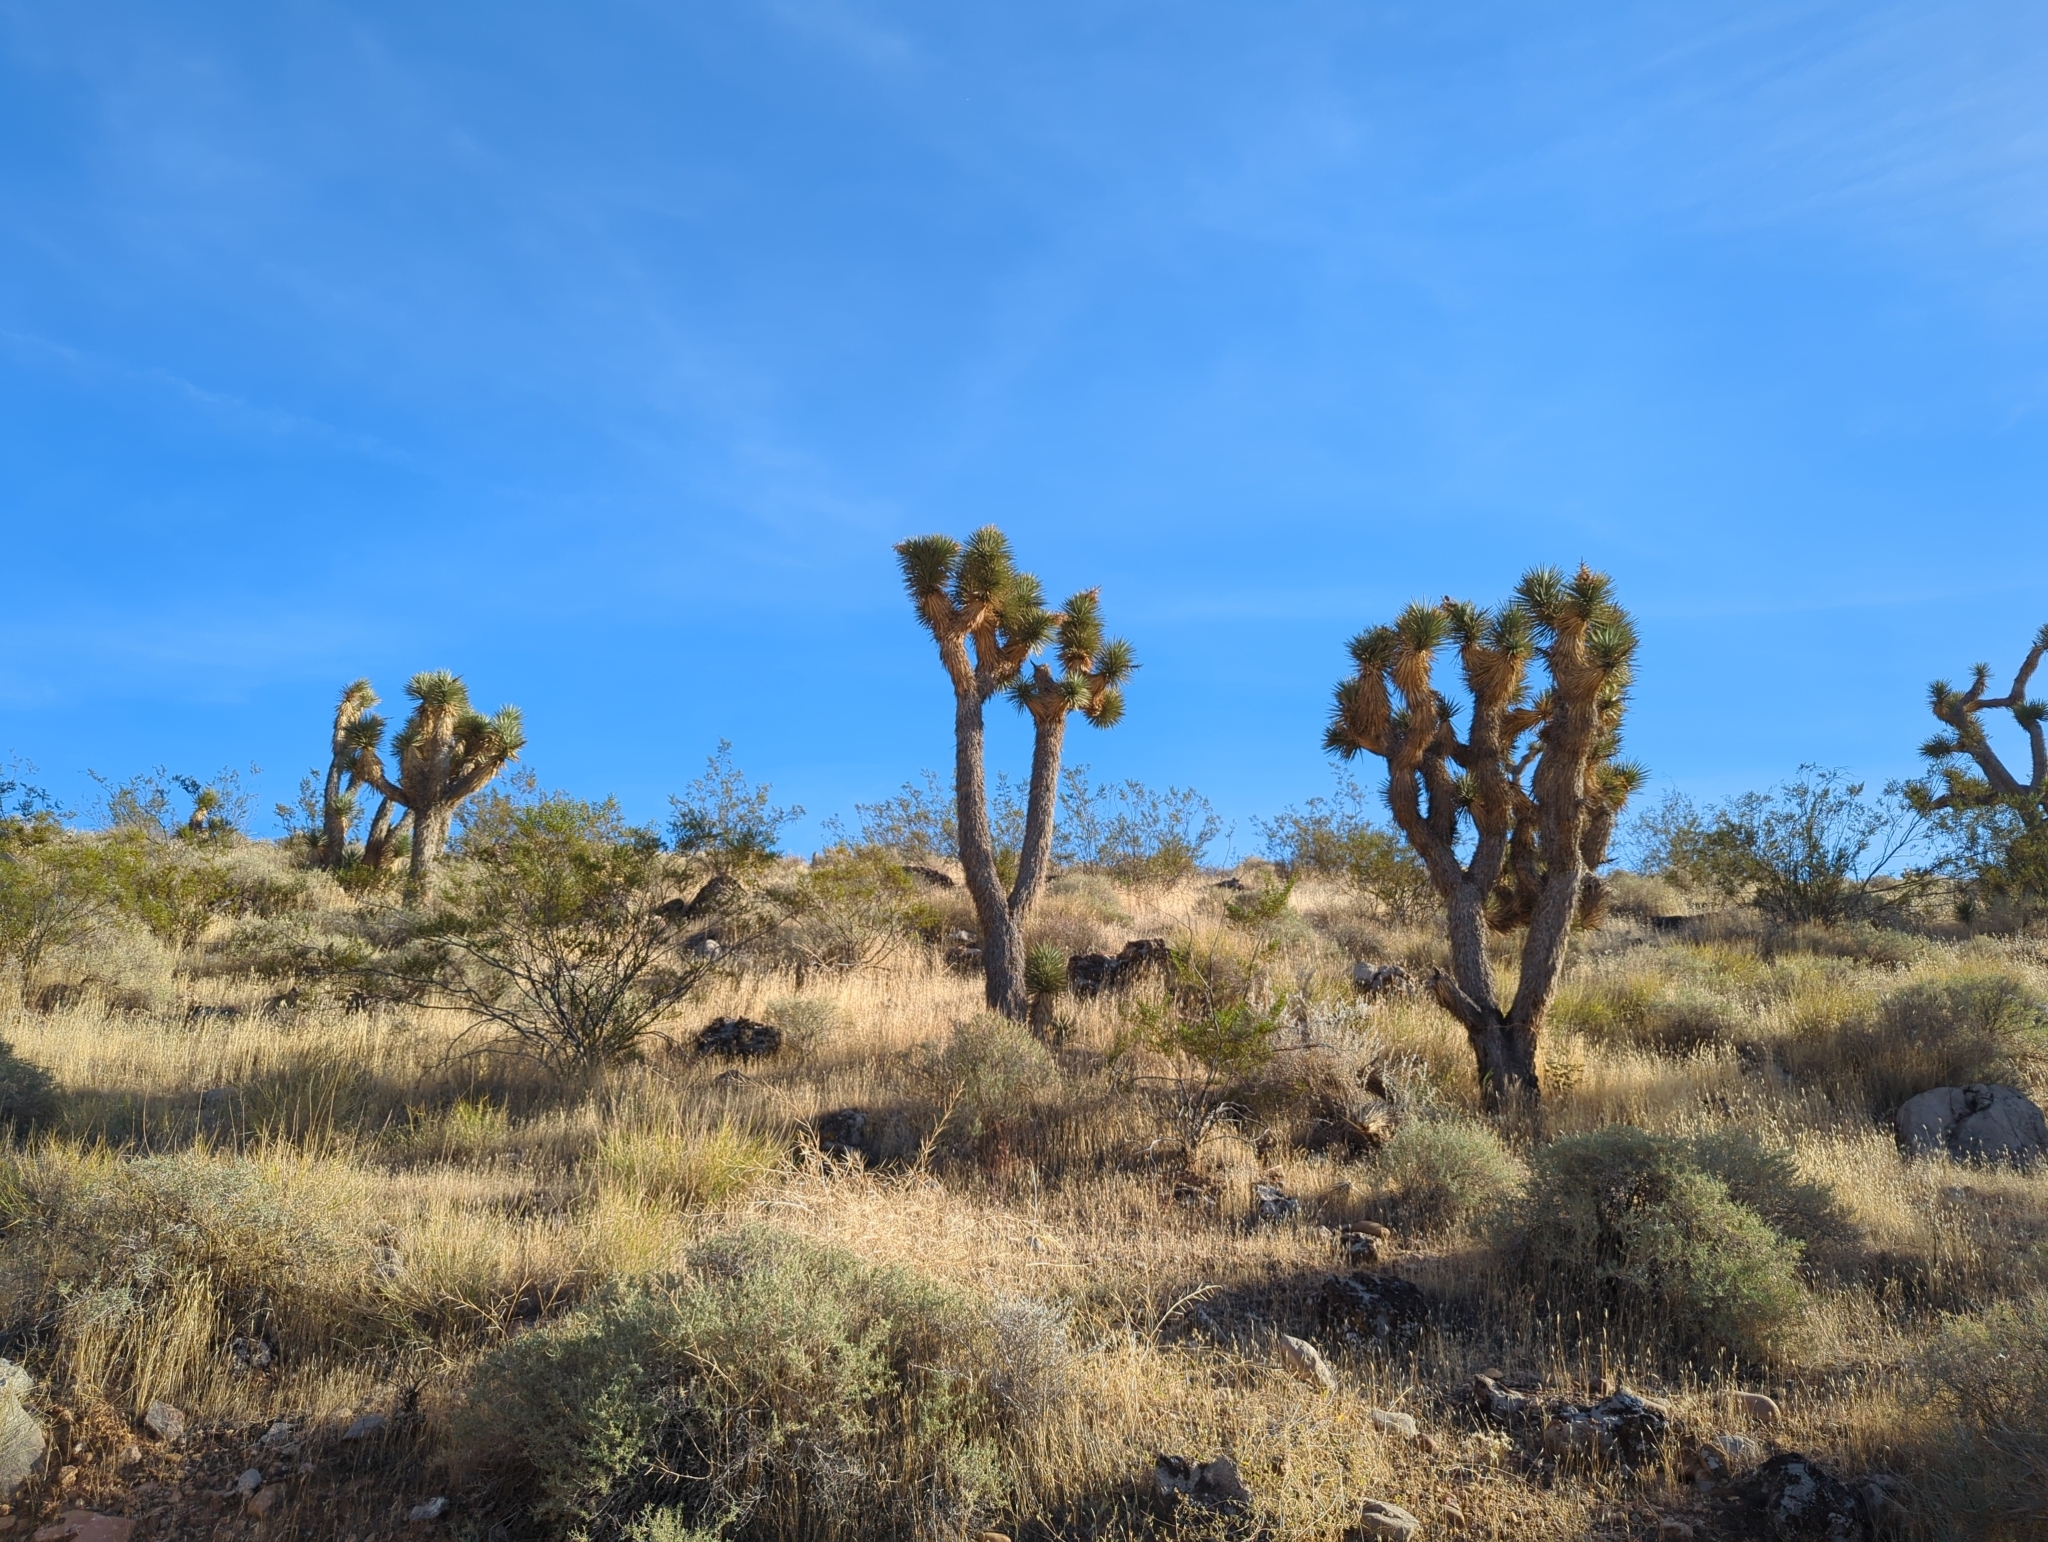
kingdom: Plantae
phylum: Tracheophyta
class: Liliopsida
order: Asparagales
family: Asparagaceae
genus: Yucca
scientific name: Yucca brevifolia
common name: Joshua tree
